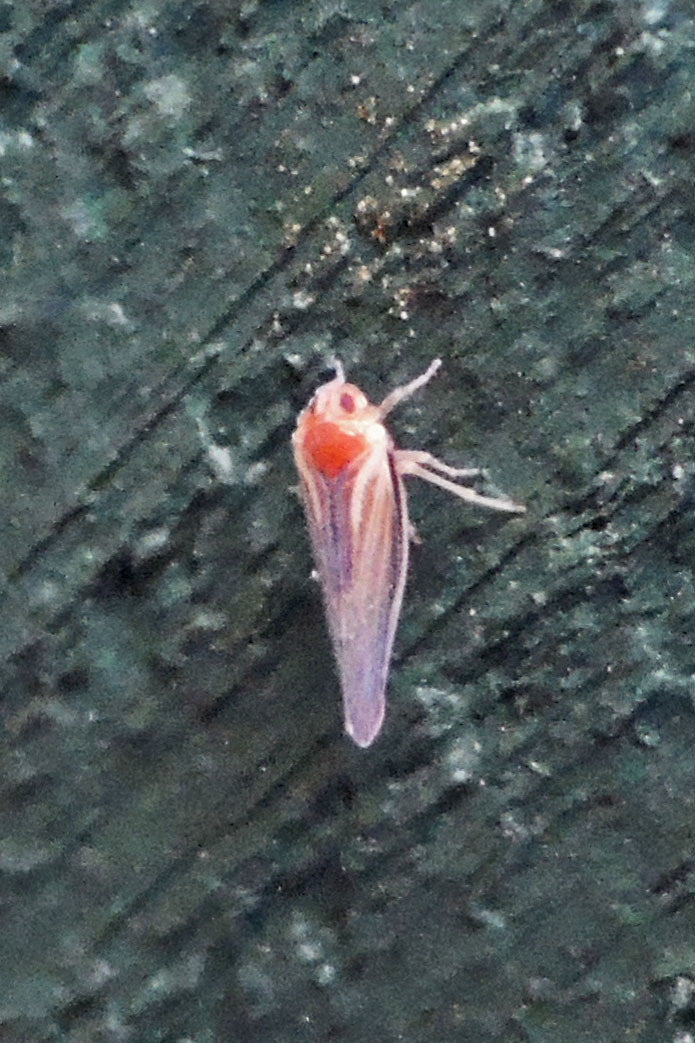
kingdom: Animalia
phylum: Arthropoda
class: Insecta
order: Hemiptera
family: Derbidae
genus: Omolicna
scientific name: Omolicna uhleri
